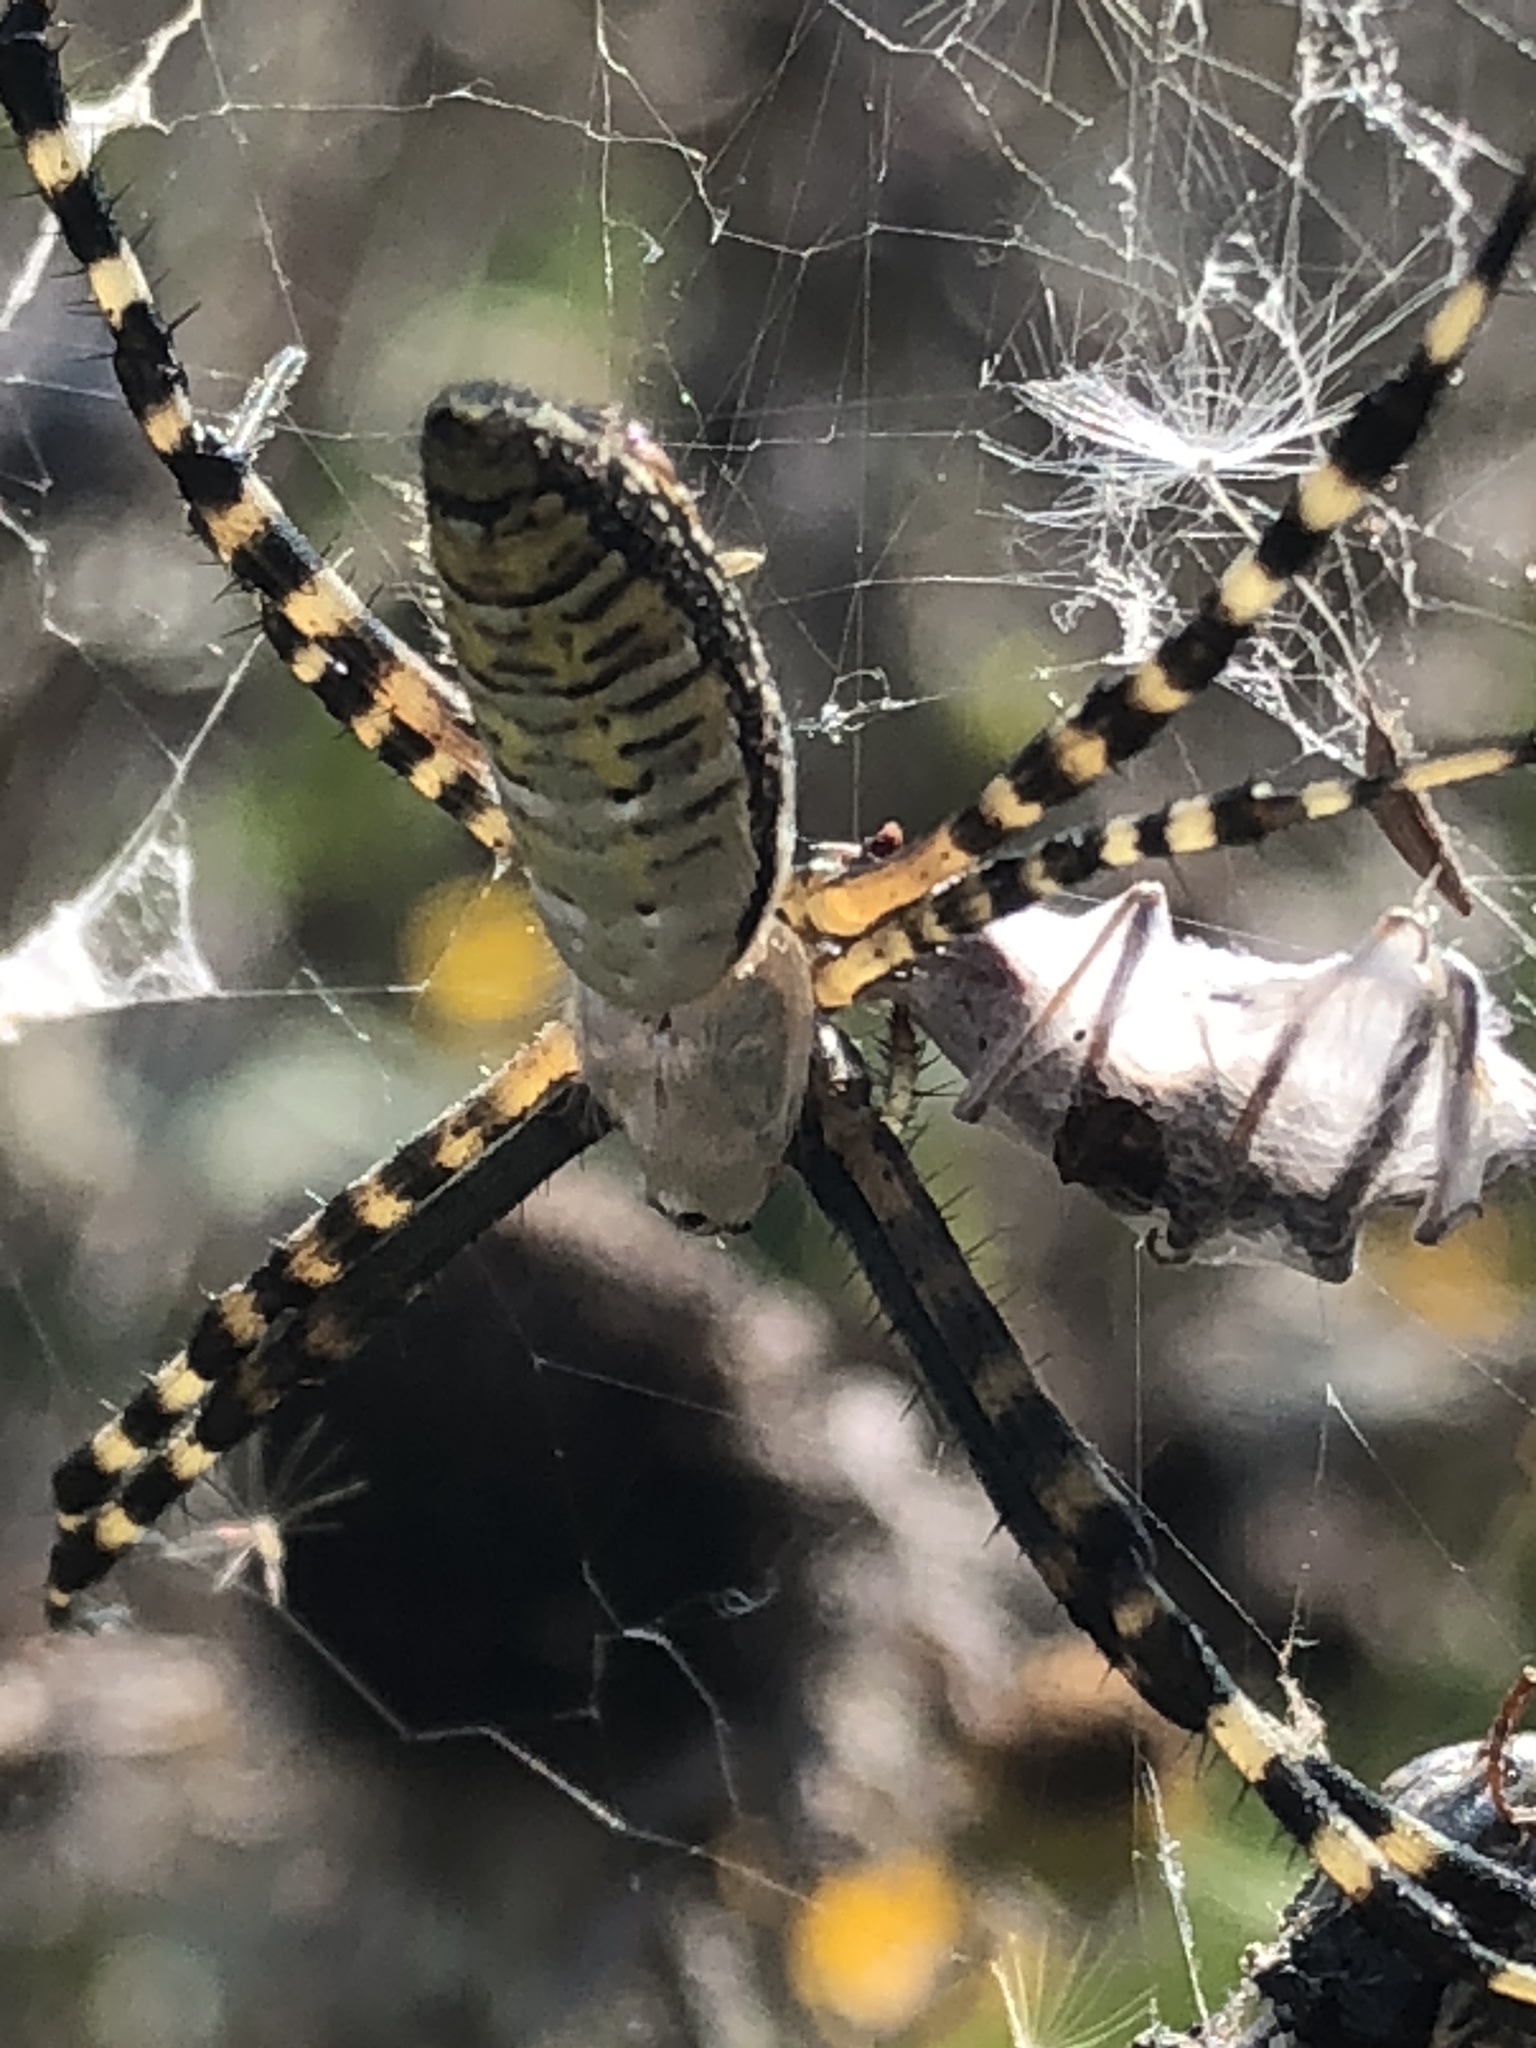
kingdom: Animalia
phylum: Arthropoda
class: Arachnida
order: Araneae
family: Araneidae
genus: Argiope
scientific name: Argiope trifasciata
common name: Banded garden spider
